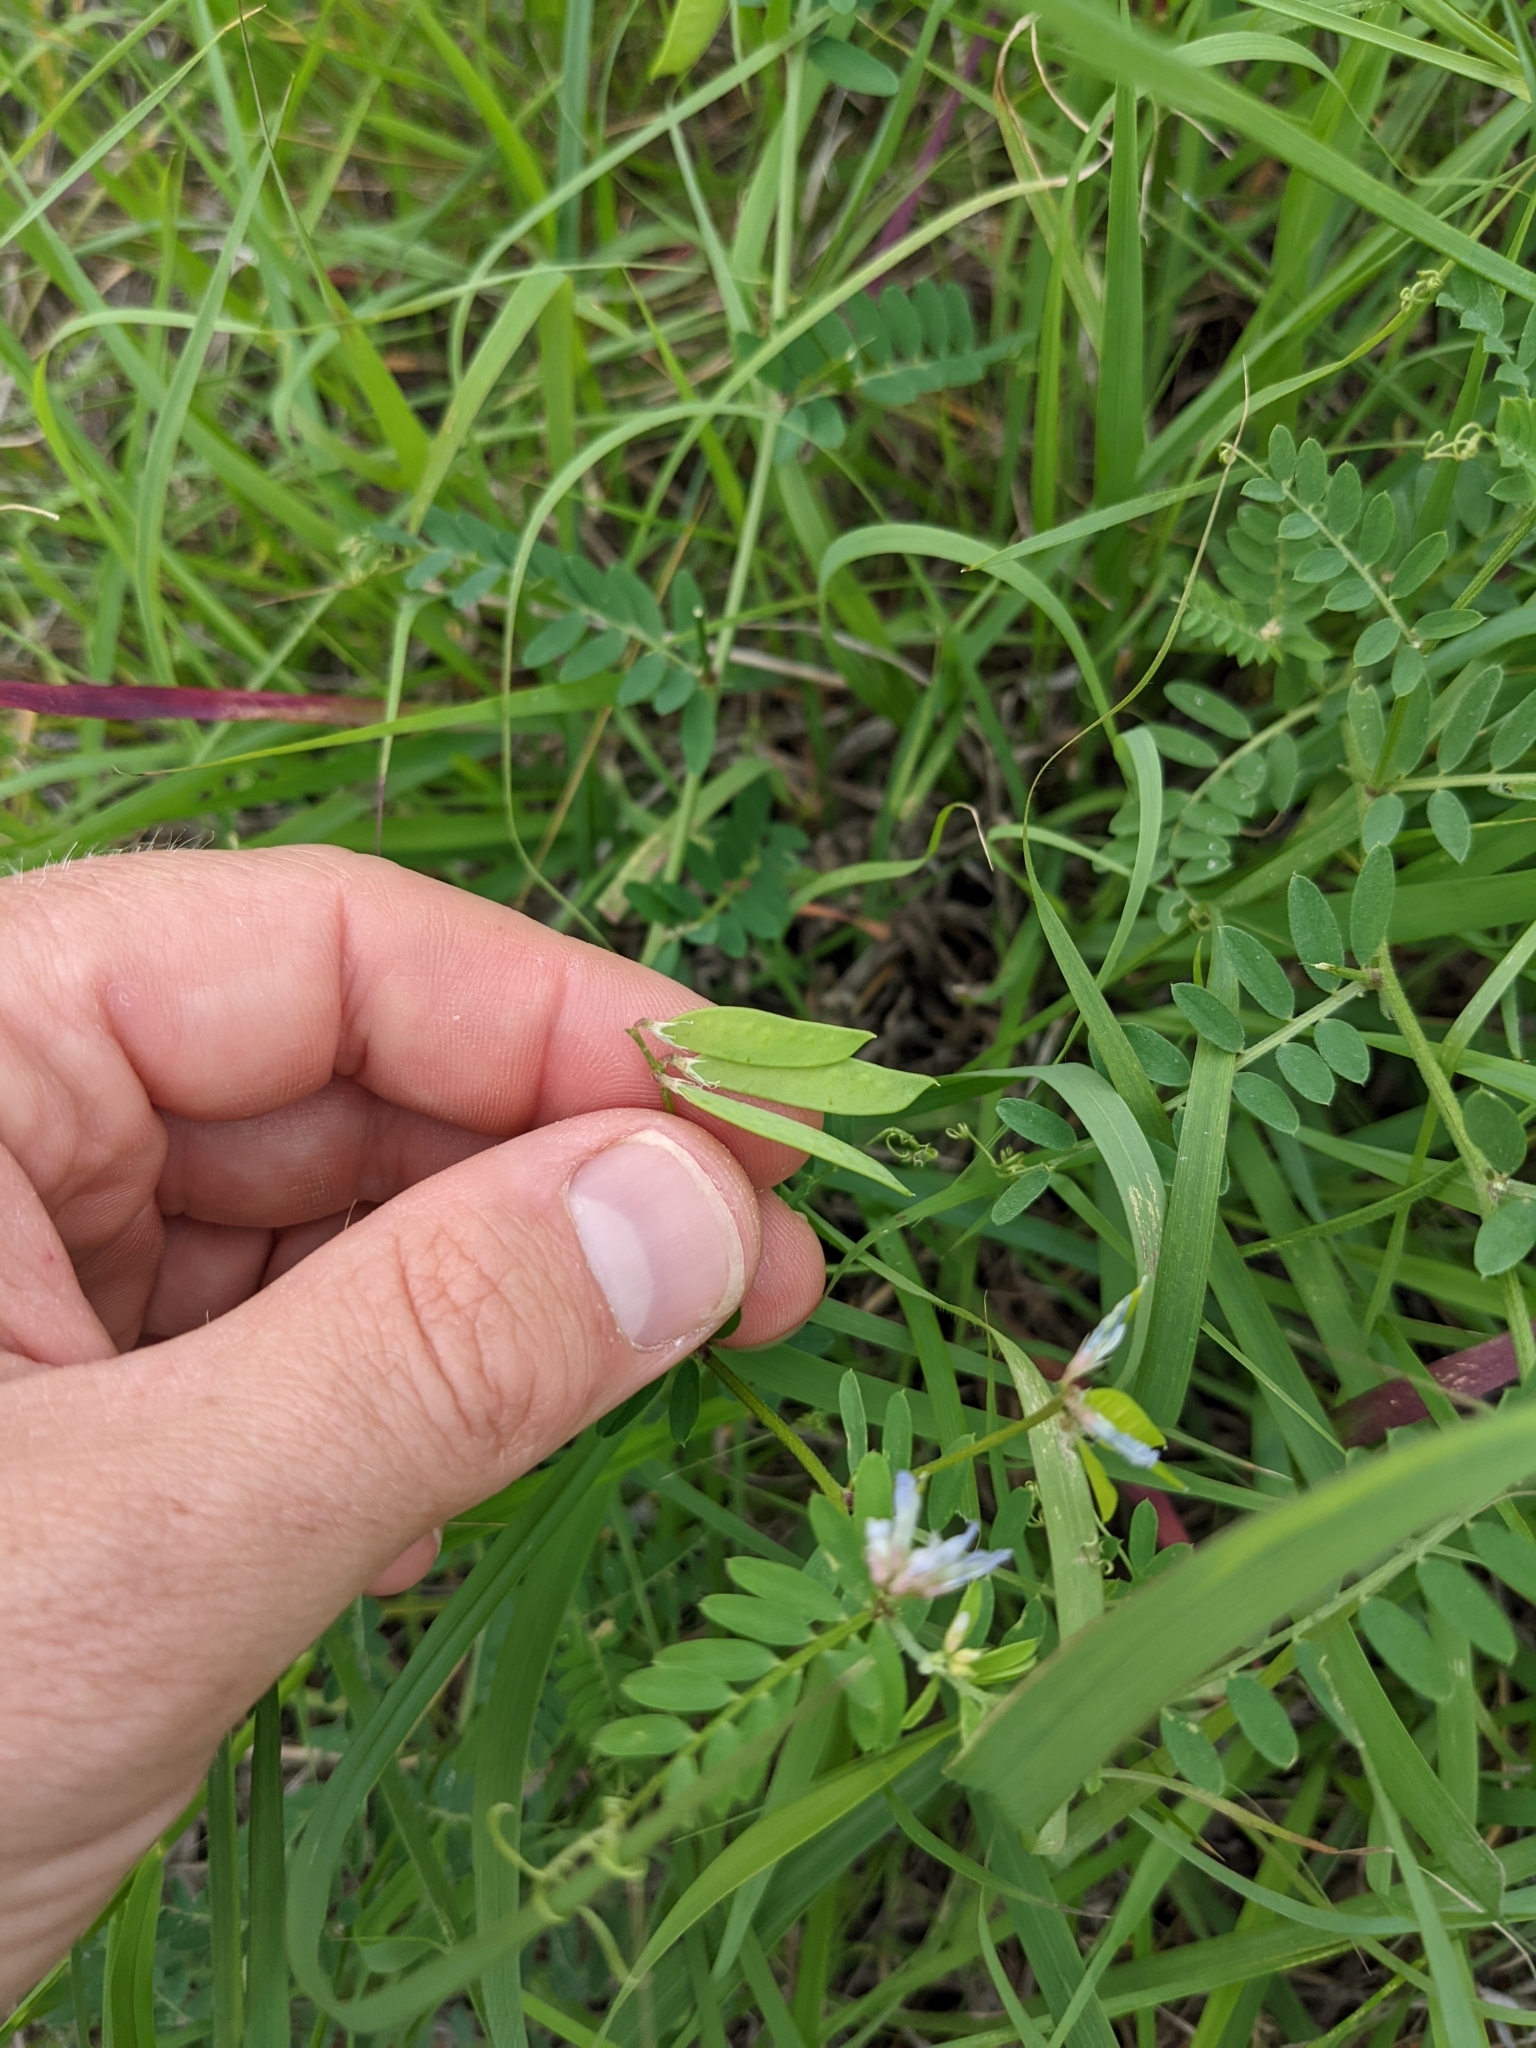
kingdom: Plantae
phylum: Tracheophyta
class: Magnoliopsida
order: Fabales
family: Fabaceae
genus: Vicia
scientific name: Vicia ludoviciana
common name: Louisiana vetch
